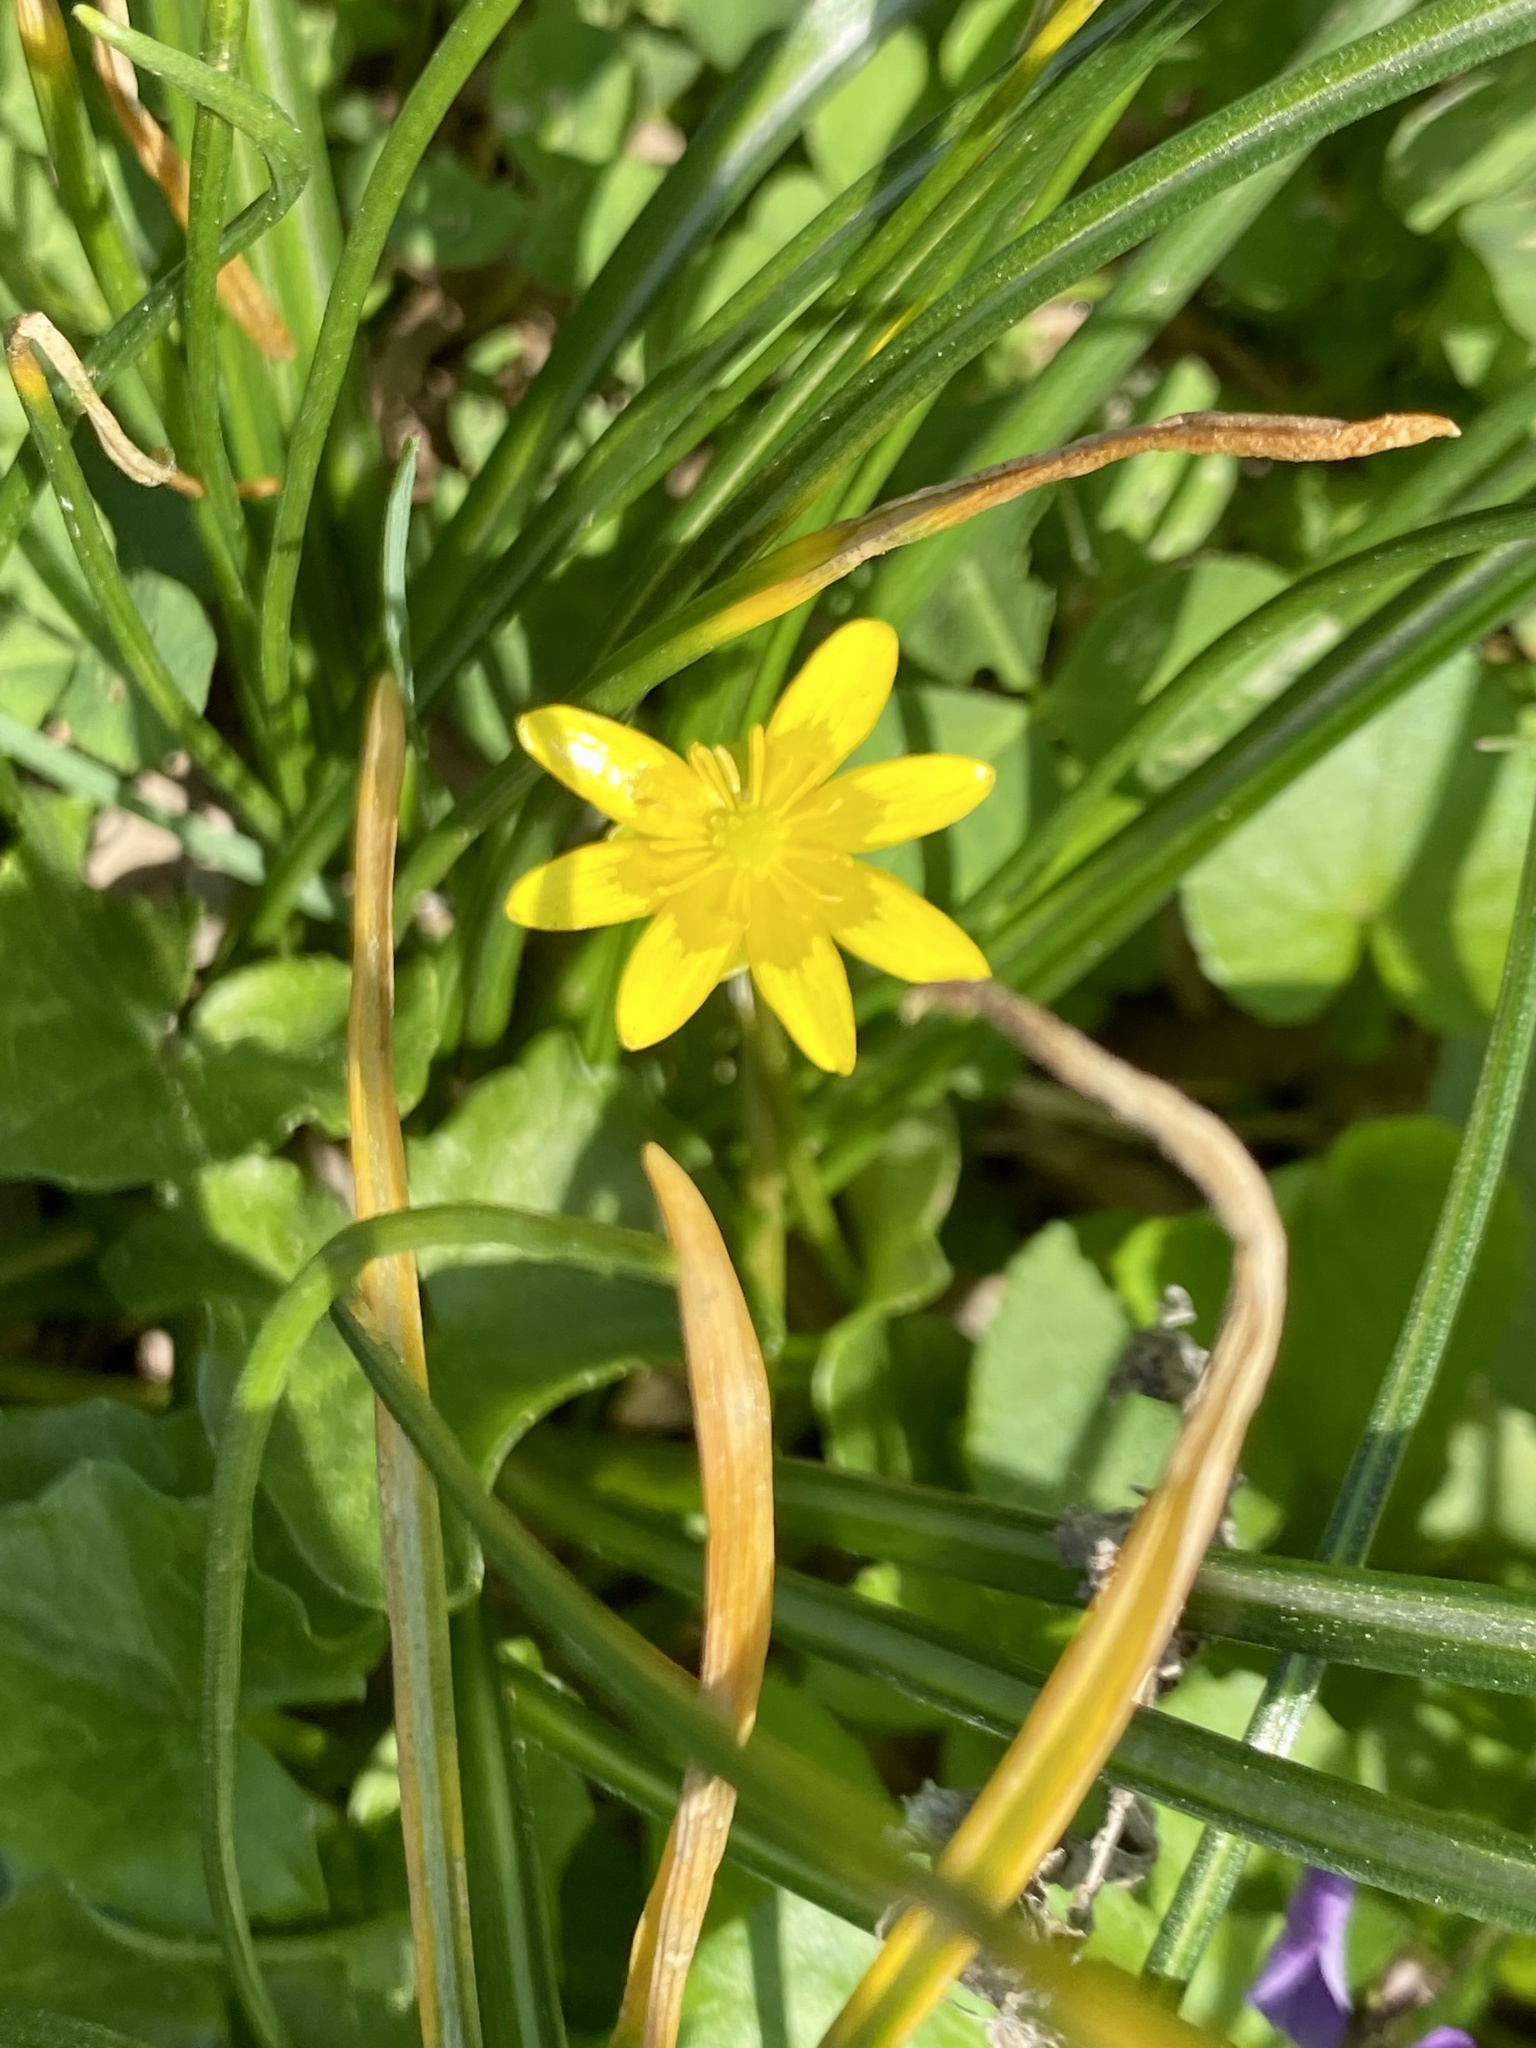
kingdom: Plantae
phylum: Tracheophyta
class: Magnoliopsida
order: Ranunculales
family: Ranunculaceae
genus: Ficaria
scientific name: Ficaria verna
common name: Lesser celandine
